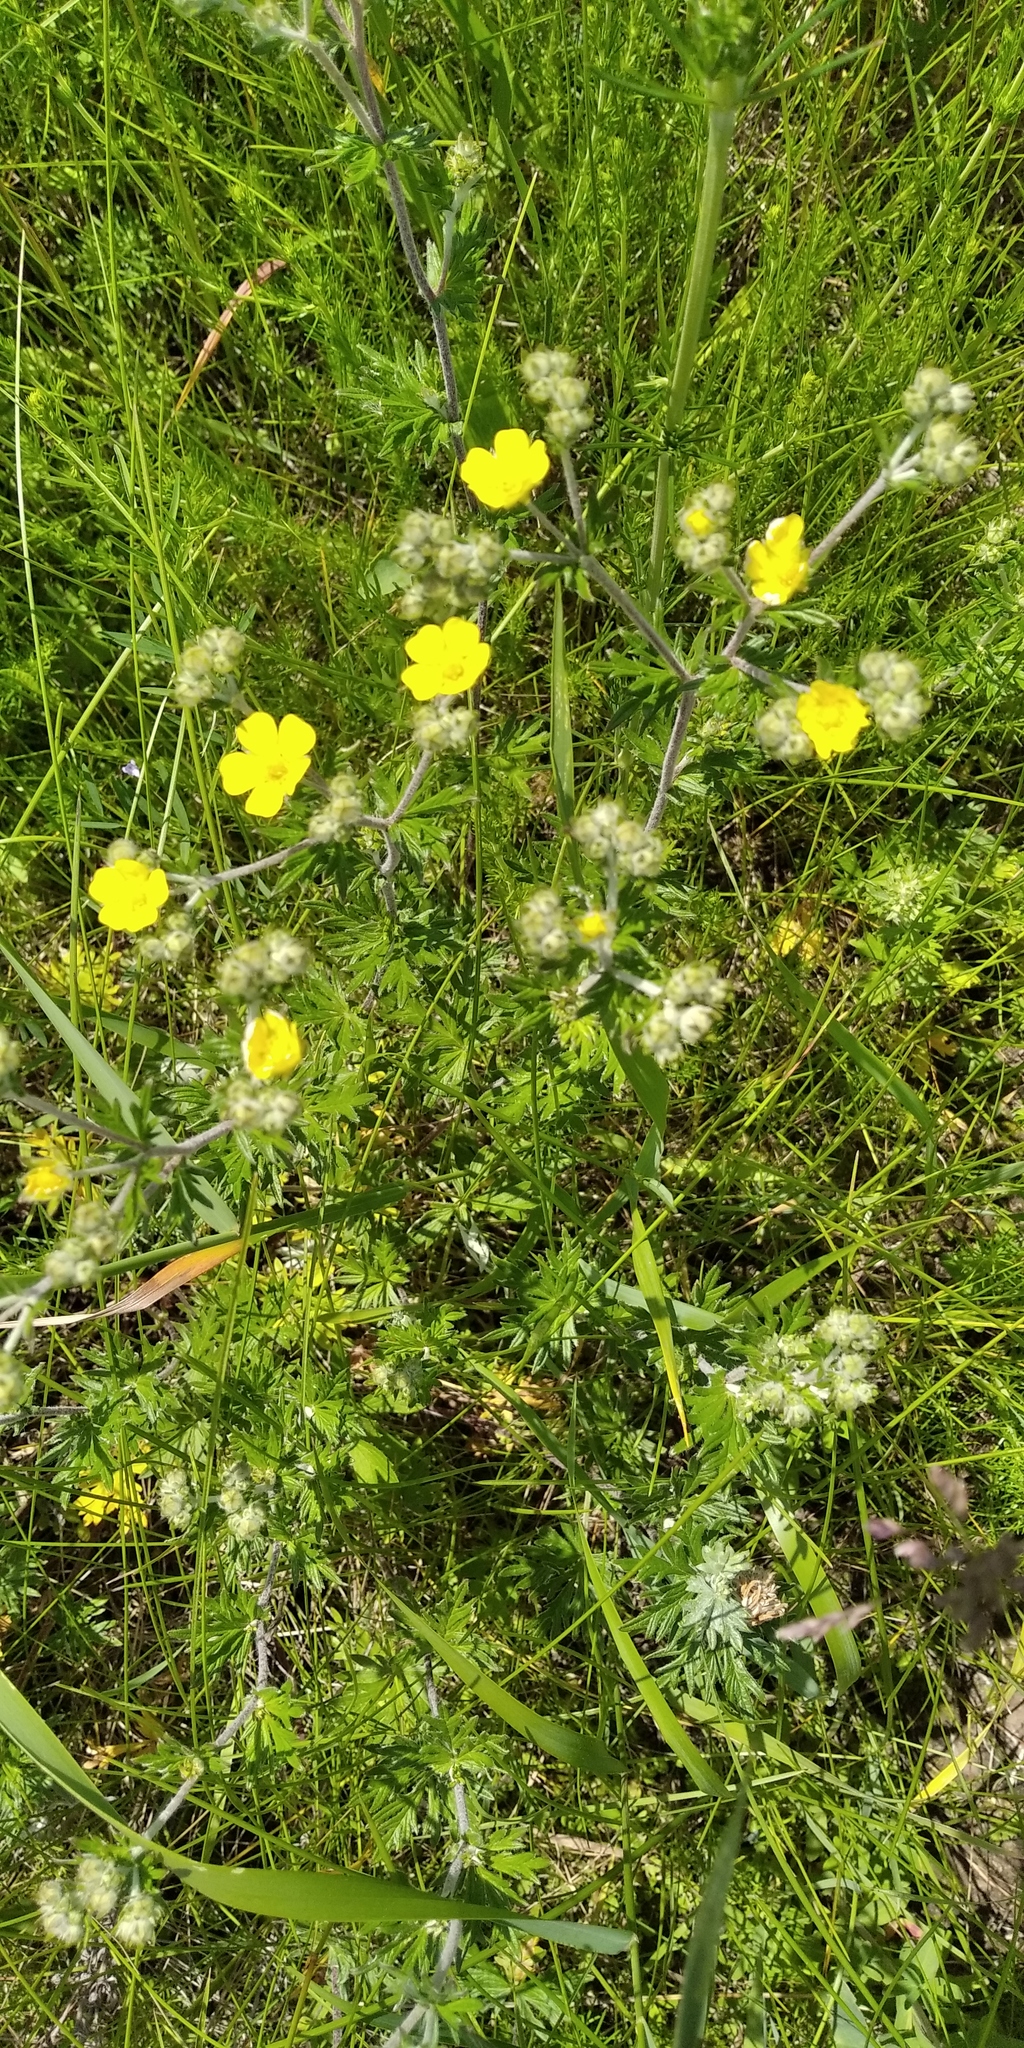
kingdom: Plantae
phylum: Tracheophyta
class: Magnoliopsida
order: Rosales
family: Rosaceae
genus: Potentilla
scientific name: Potentilla argentea
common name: Hoary cinquefoil
